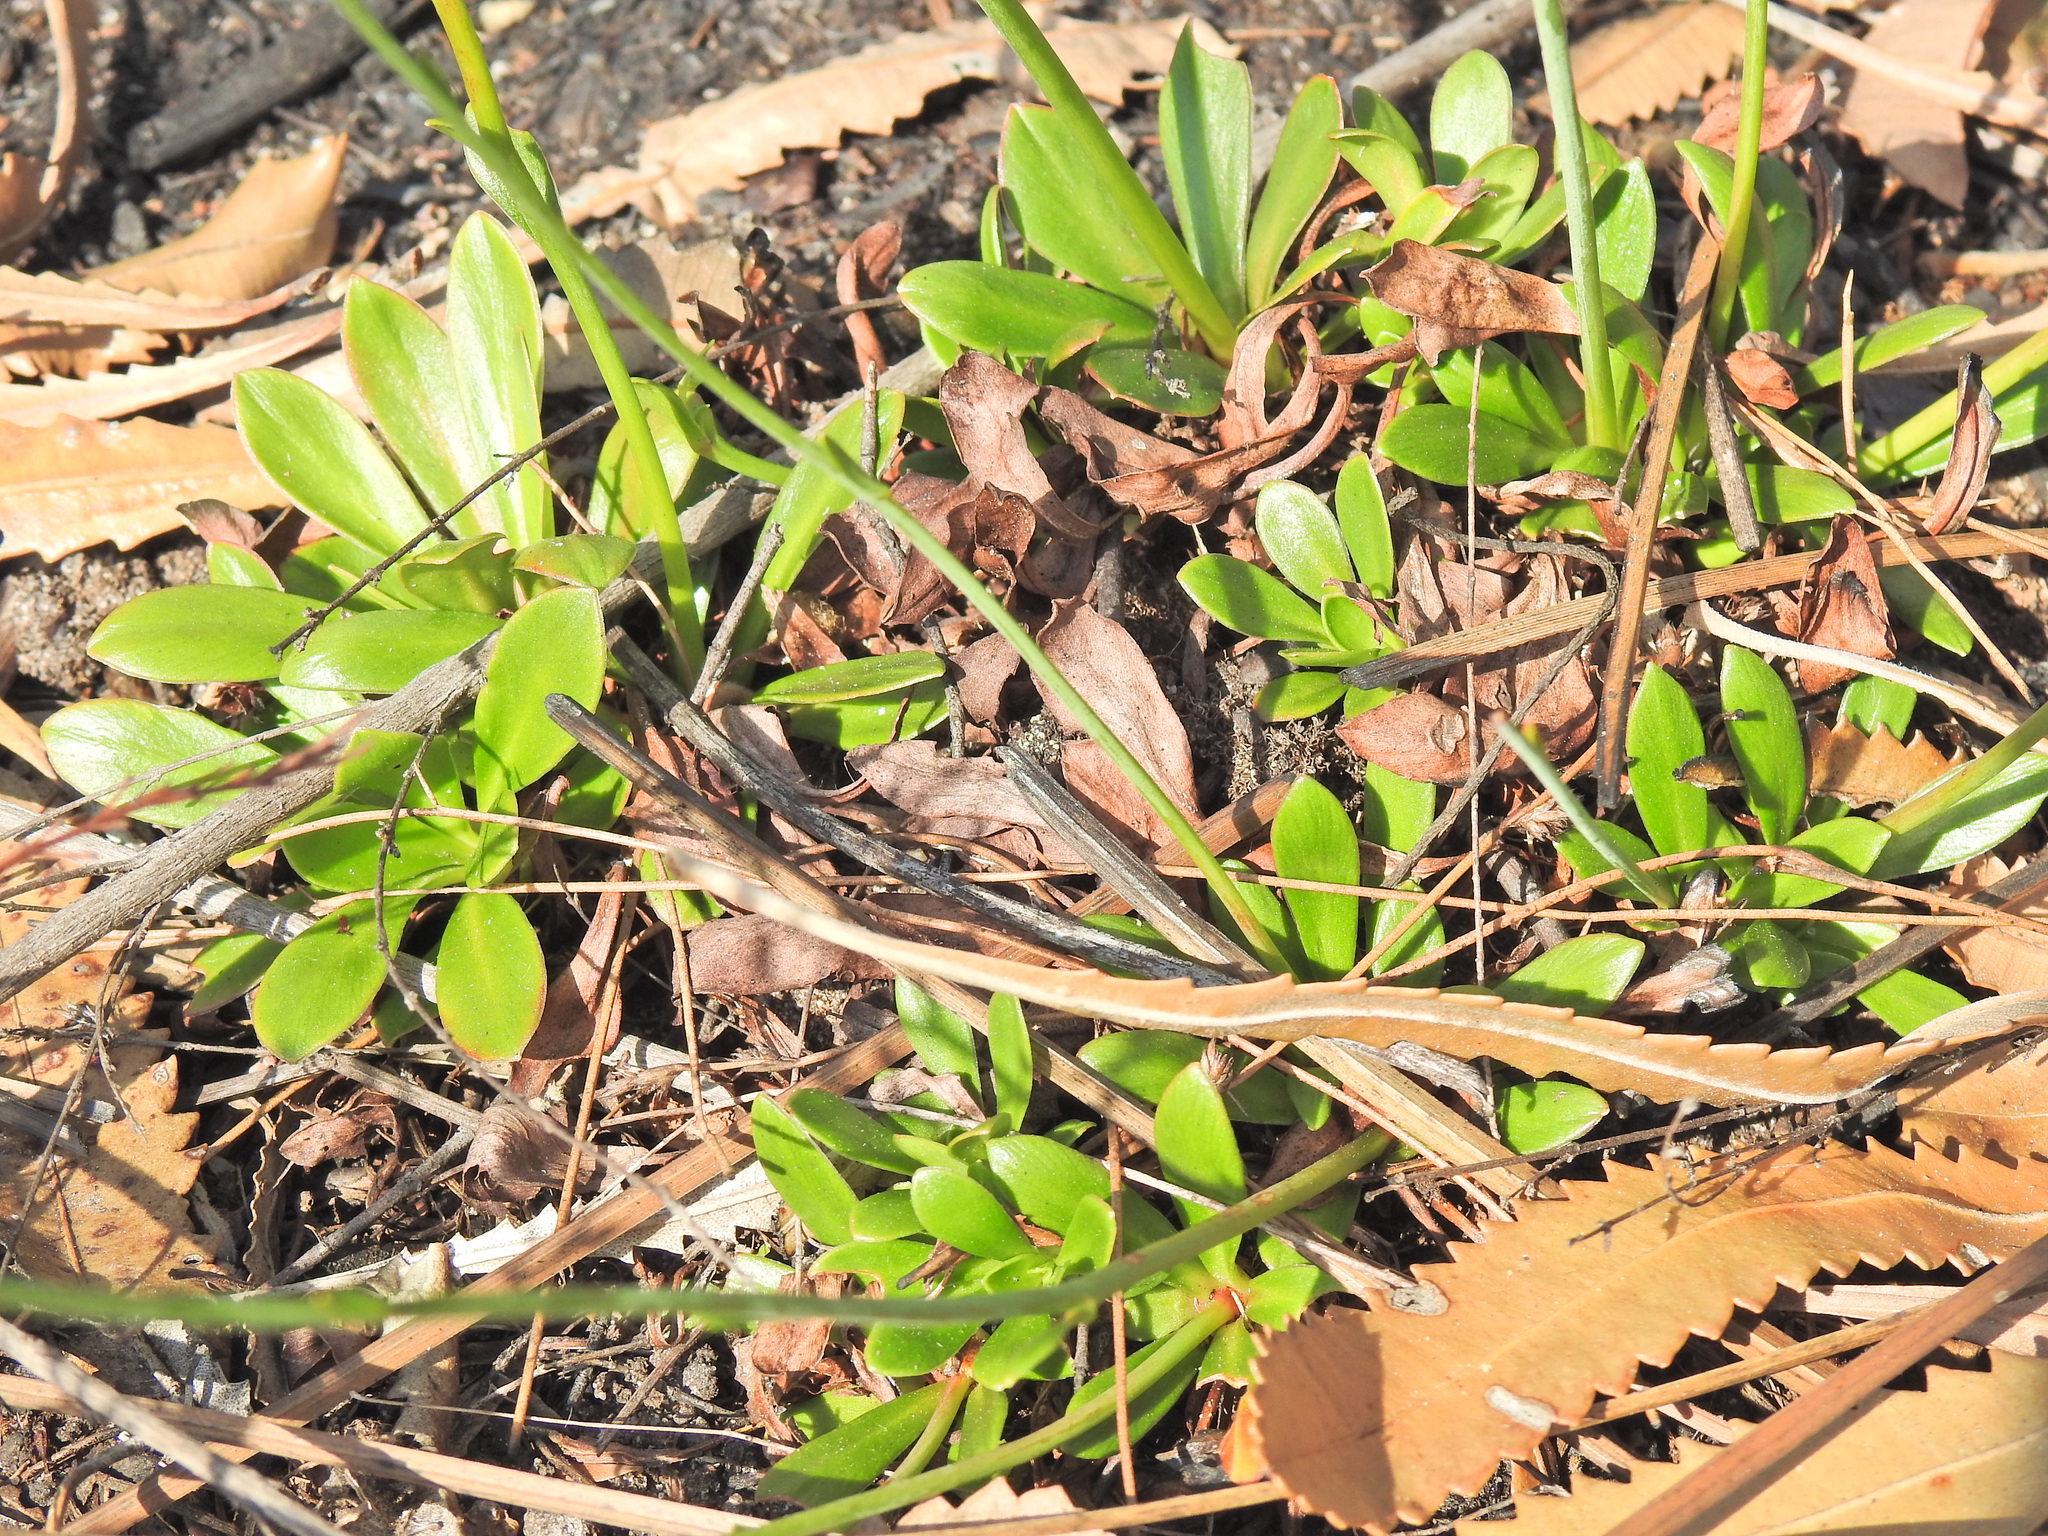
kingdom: Plantae
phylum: Tracheophyta
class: Magnoliopsida
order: Asterales
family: Stylidiaceae
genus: Stylidium
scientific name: Stylidium ornatum
